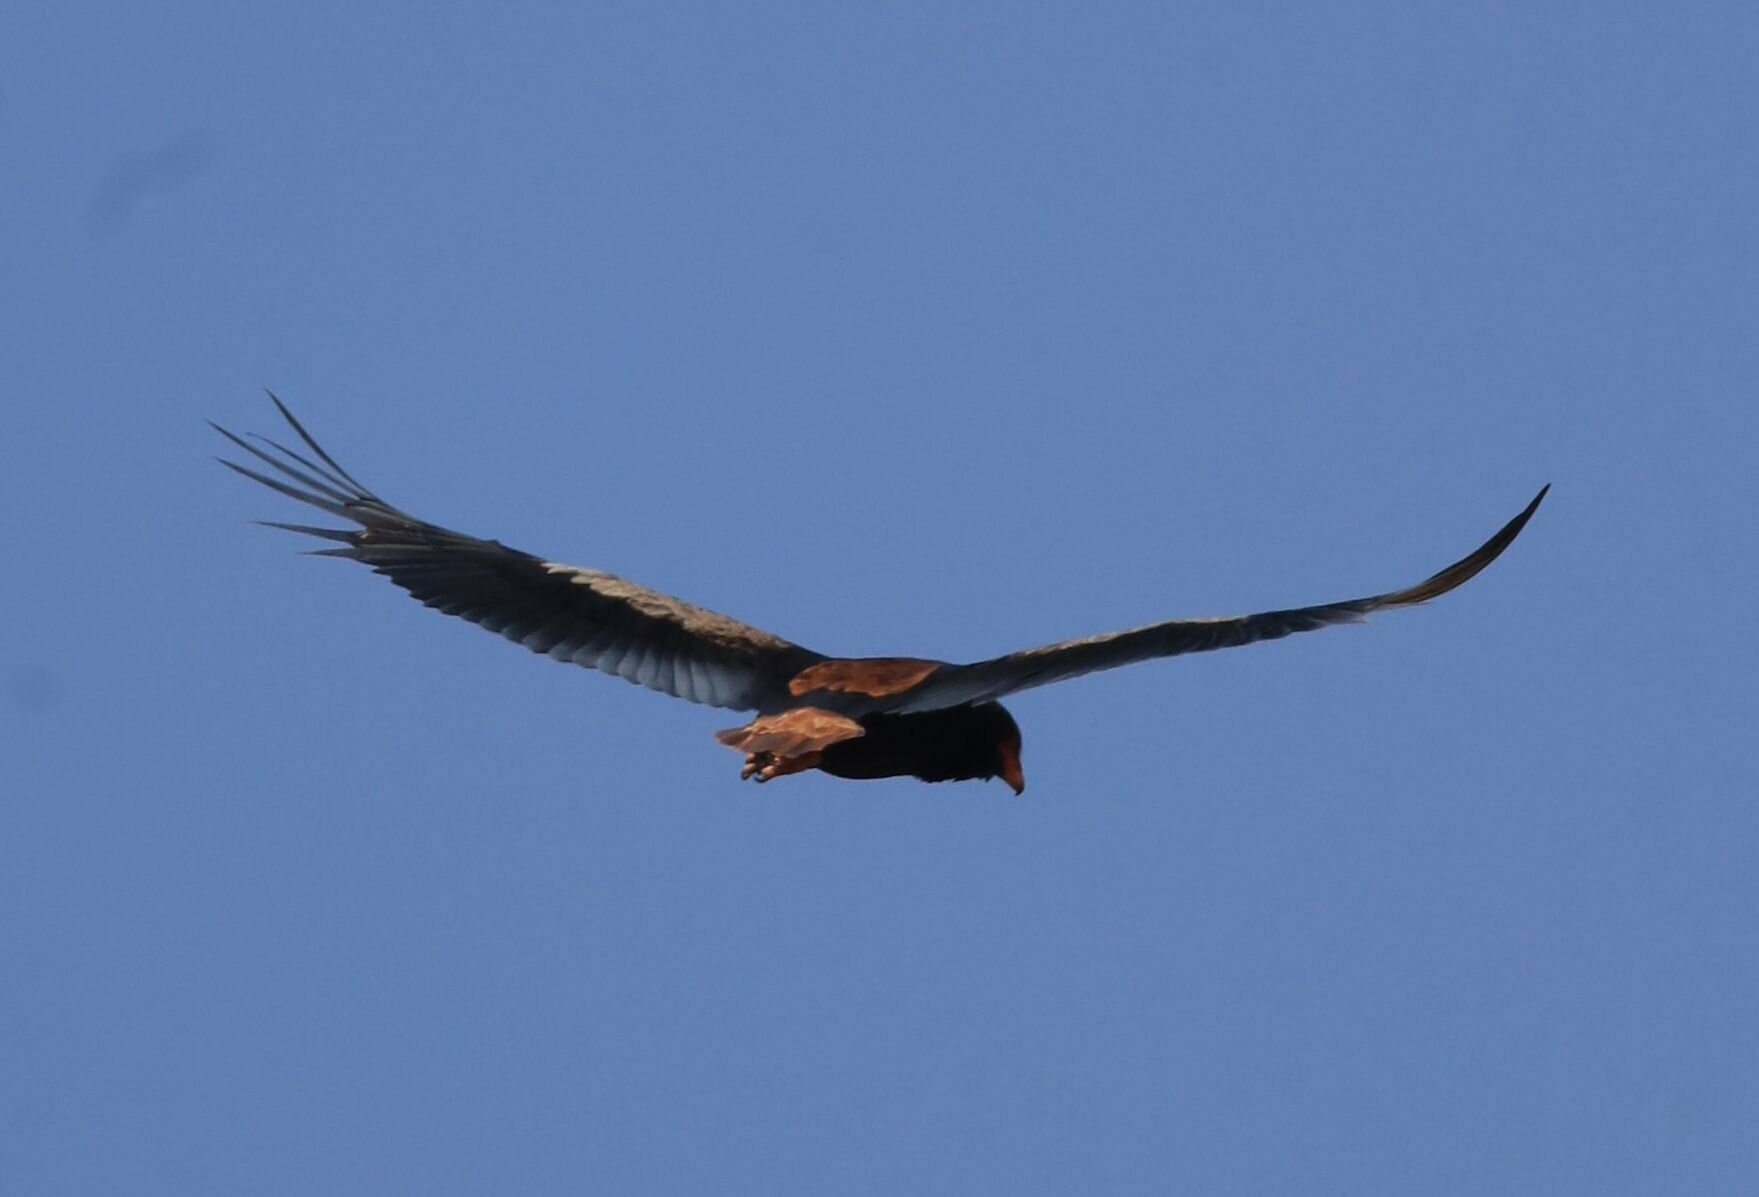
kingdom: Animalia
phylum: Chordata
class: Aves
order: Accipitriformes
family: Accipitridae
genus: Terathopius
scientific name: Terathopius ecaudatus
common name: Bateleur
